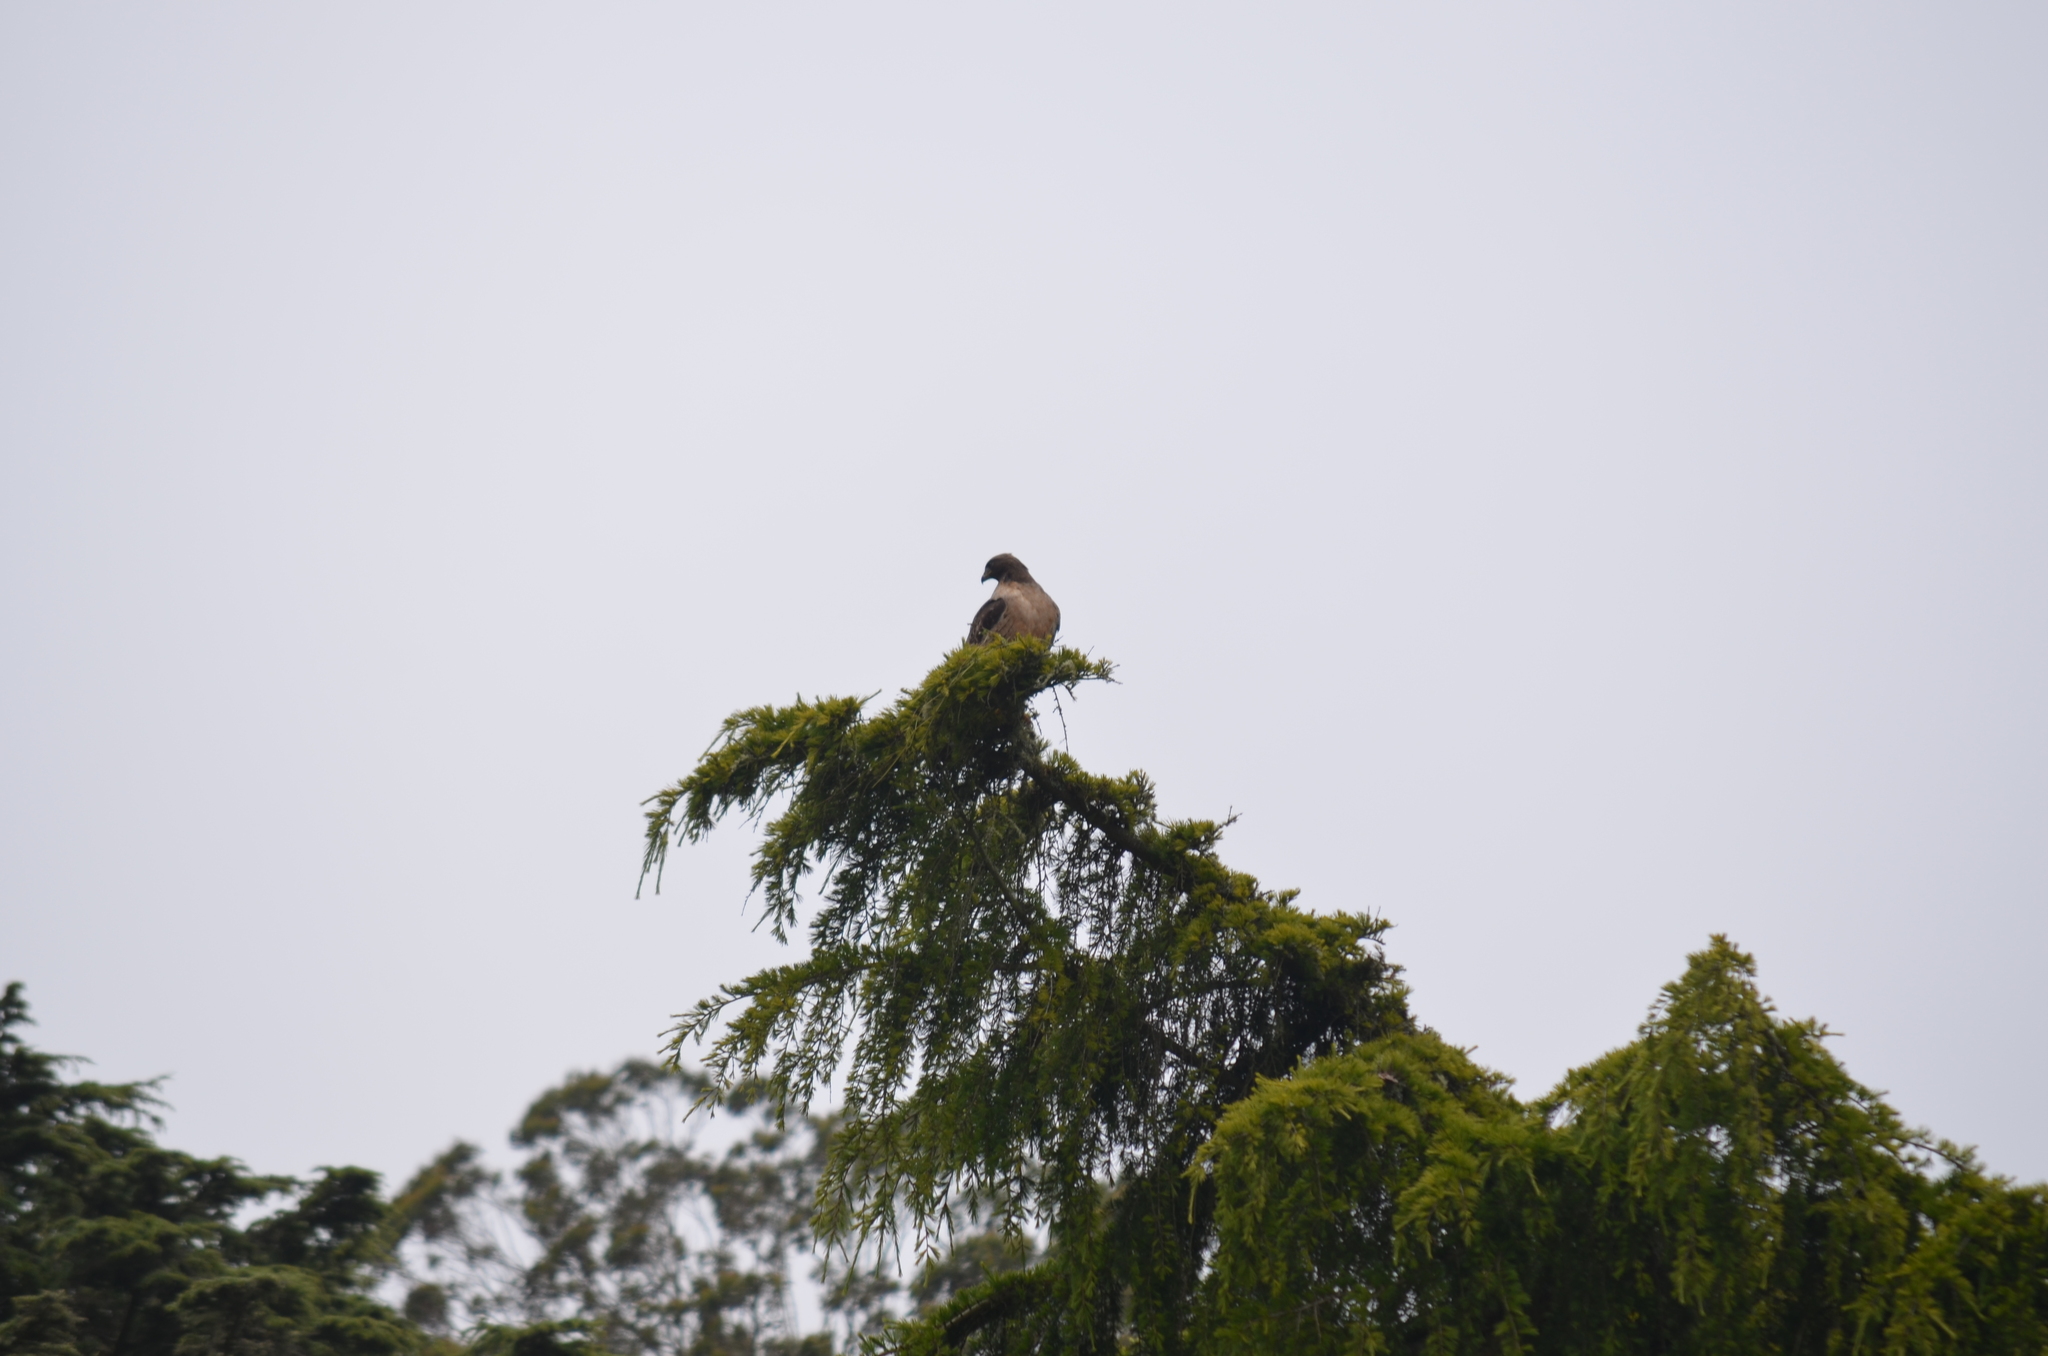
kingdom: Animalia
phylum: Chordata
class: Aves
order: Accipitriformes
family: Accipitridae
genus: Buteo
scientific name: Buteo jamaicensis
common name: Red-tailed hawk
